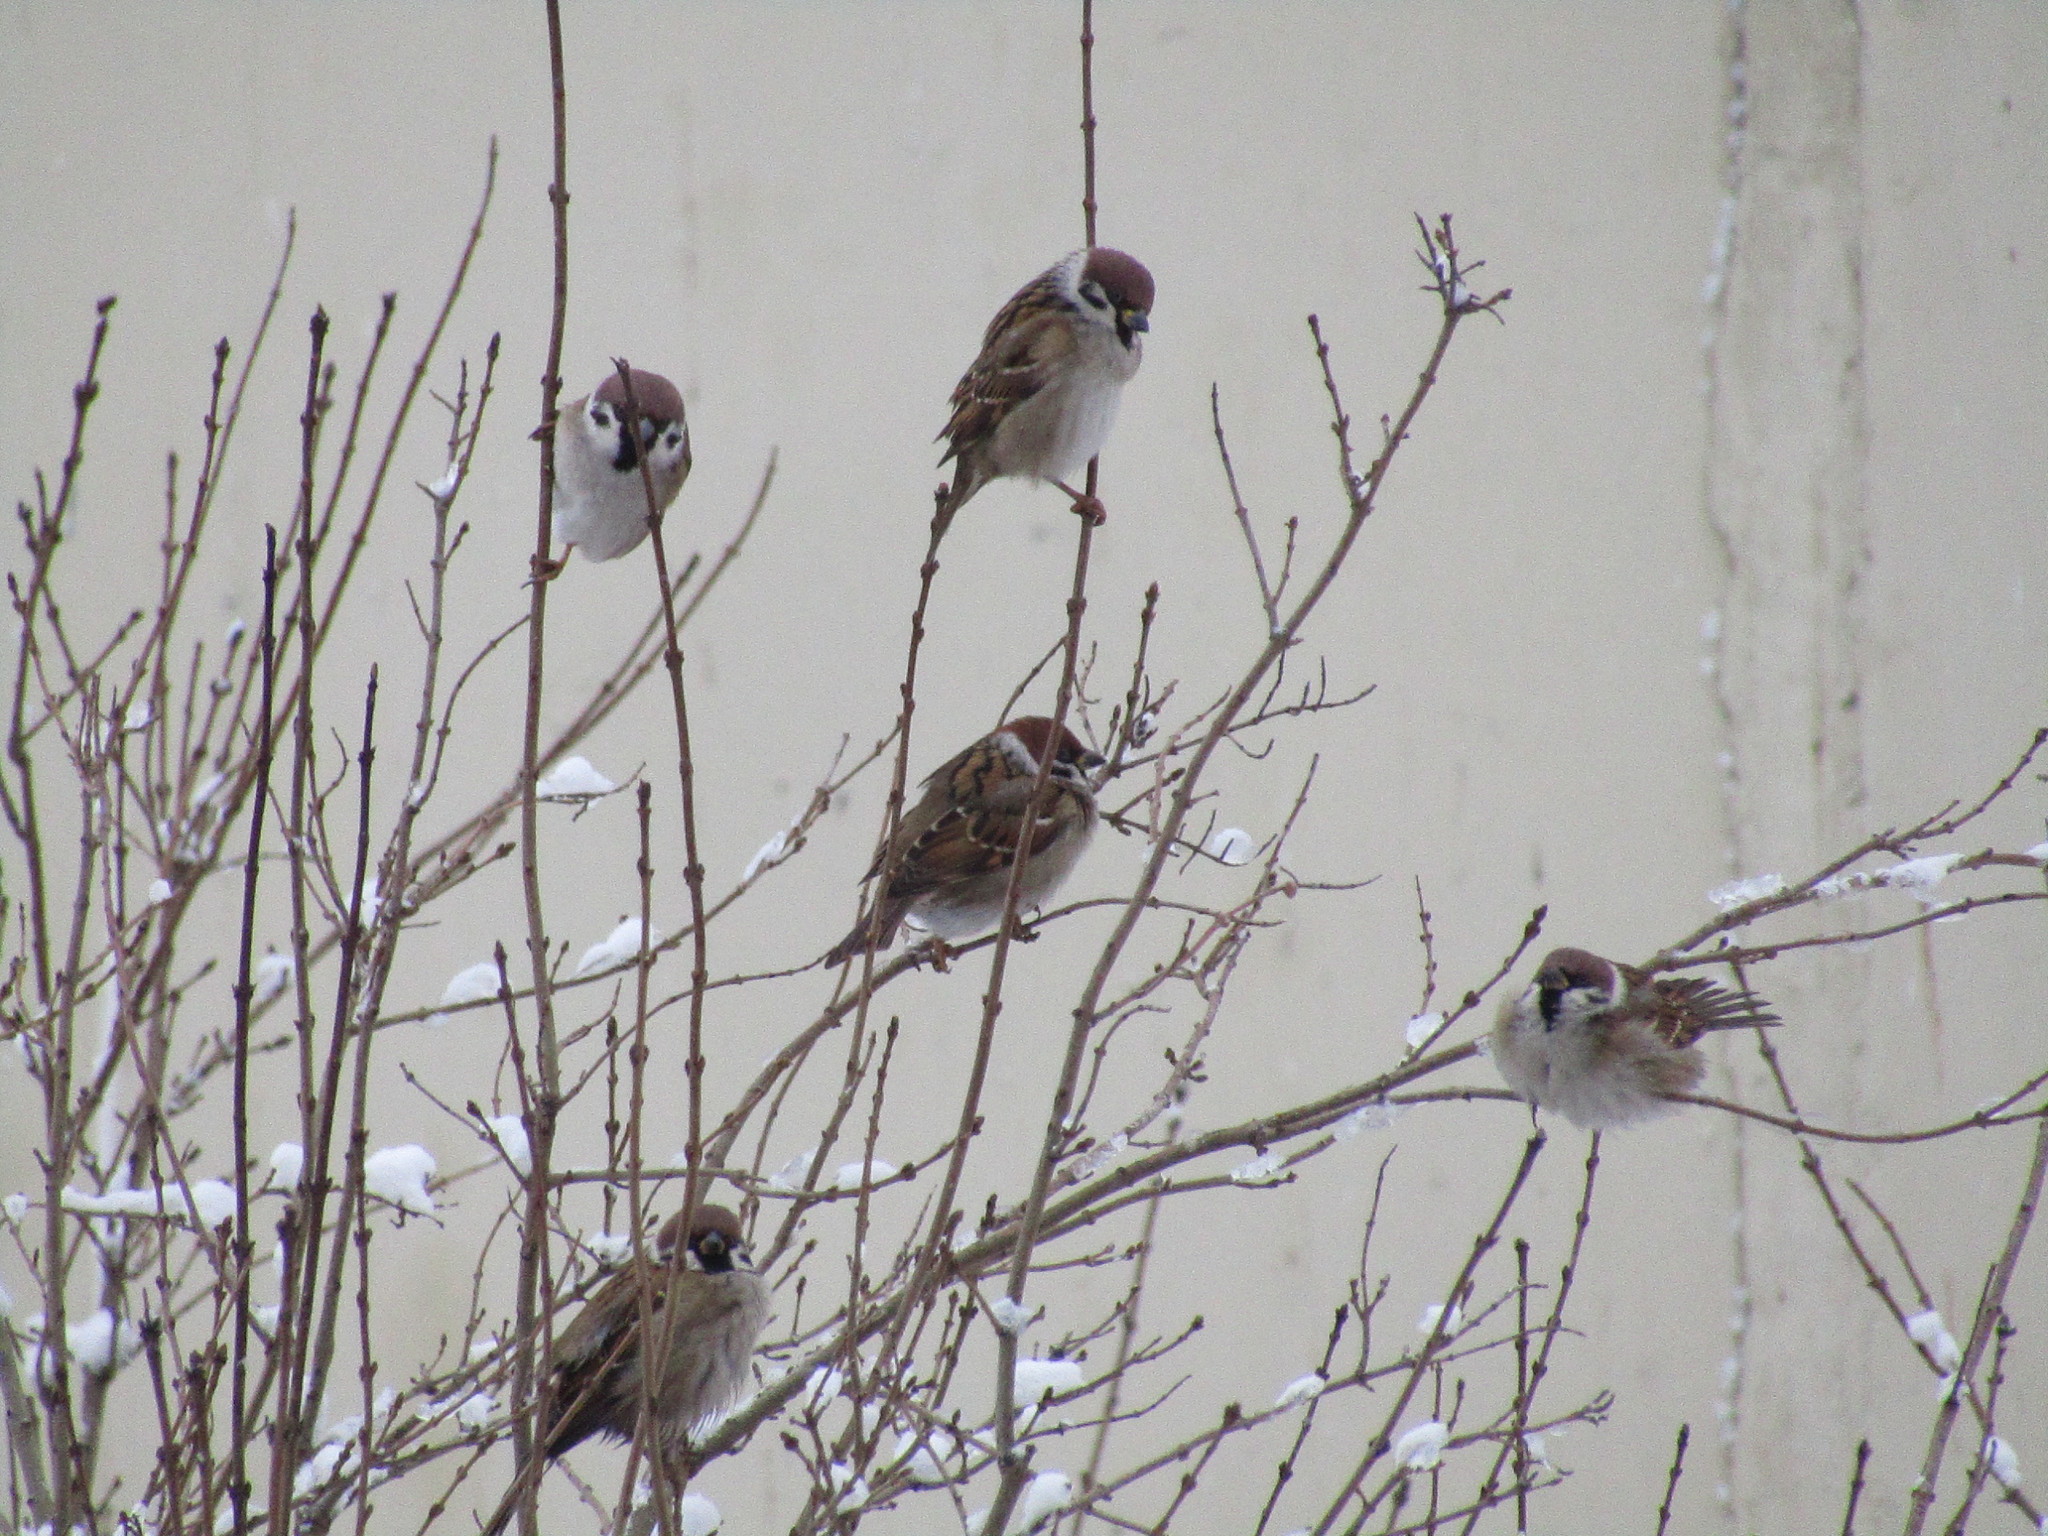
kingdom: Animalia
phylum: Chordata
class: Aves
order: Passeriformes
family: Passeridae
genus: Passer
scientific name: Passer montanus
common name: Eurasian tree sparrow
